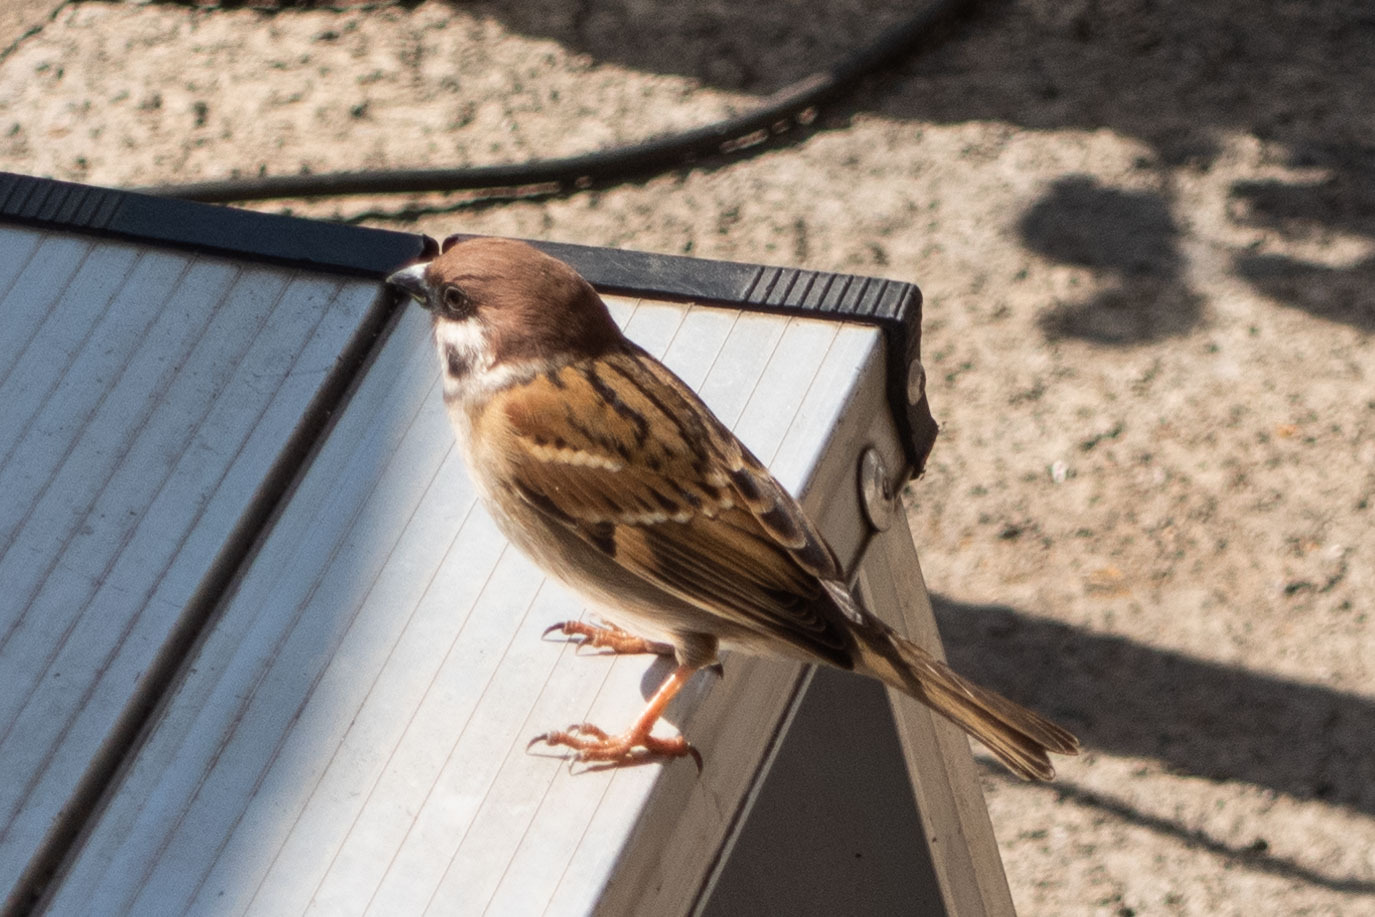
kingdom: Animalia
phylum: Chordata
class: Aves
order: Passeriformes
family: Passeridae
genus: Passer
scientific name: Passer montanus
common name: Eurasian tree sparrow
